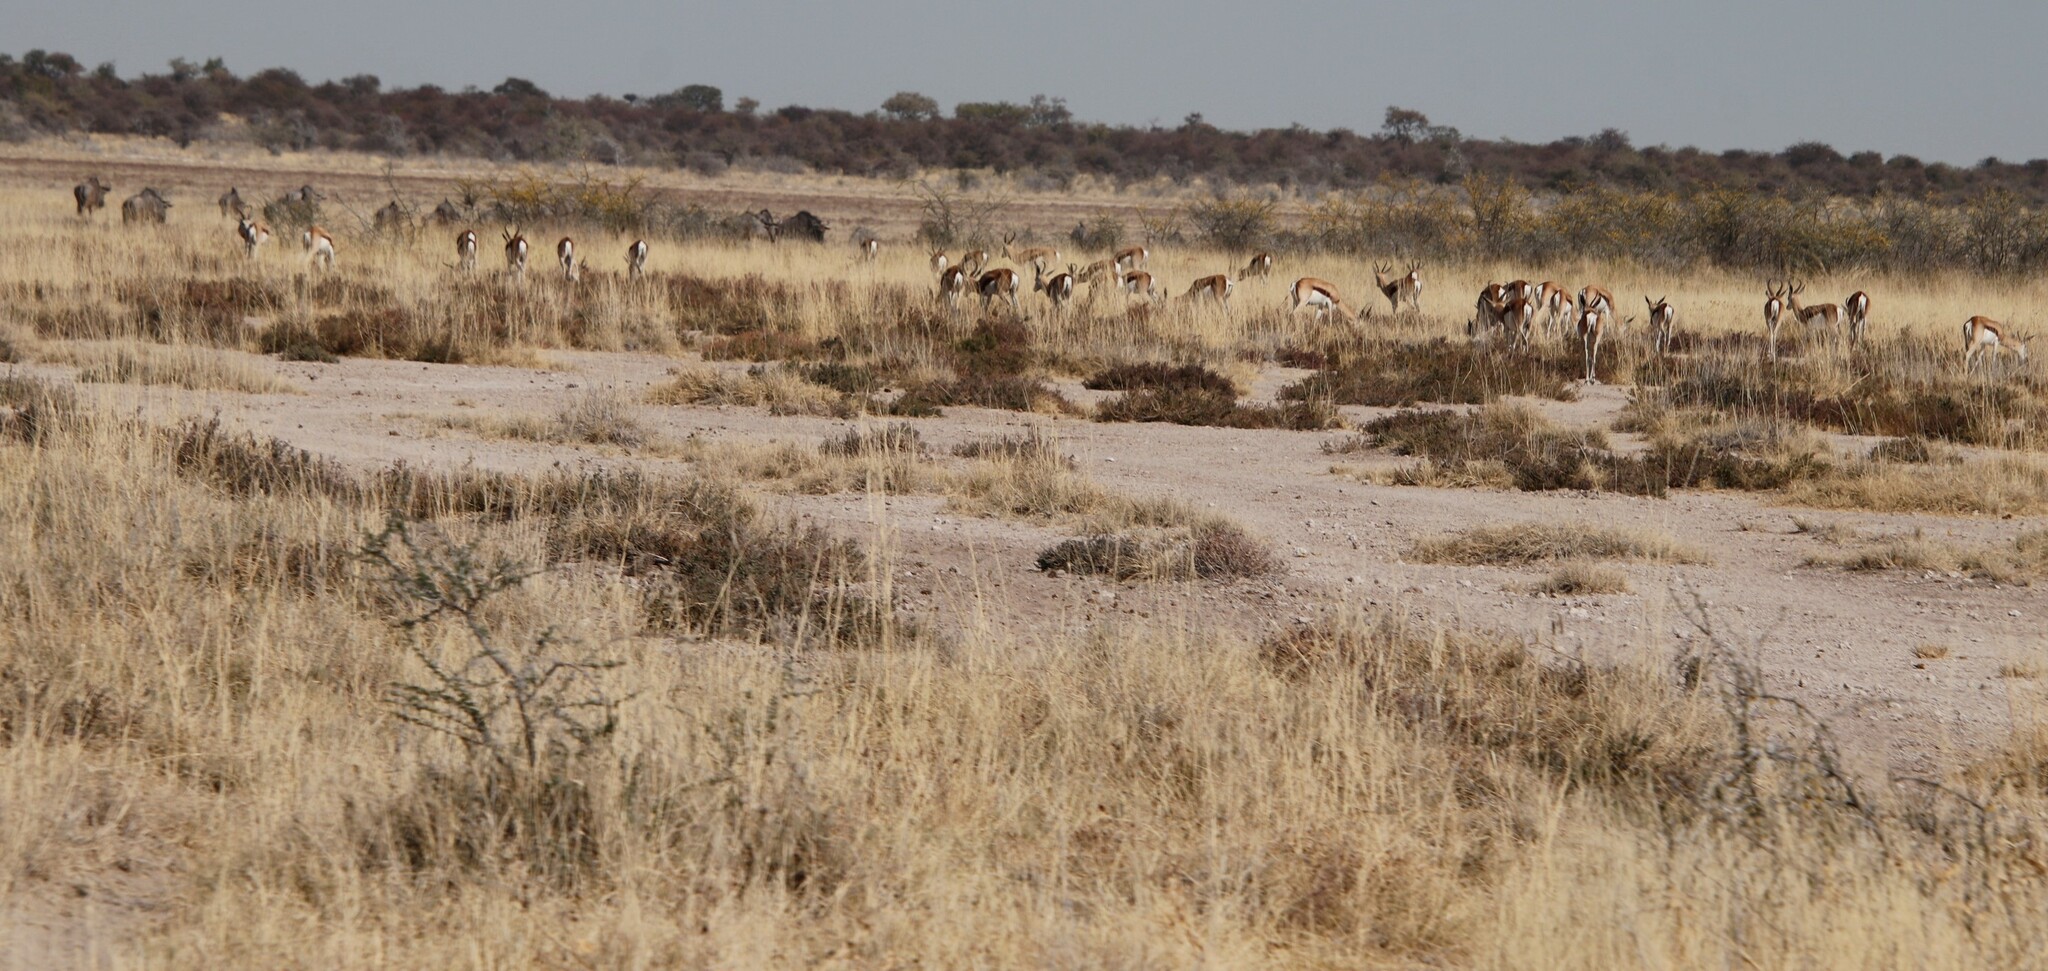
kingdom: Animalia
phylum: Chordata
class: Mammalia
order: Artiodactyla
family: Bovidae
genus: Antidorcas
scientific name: Antidorcas marsupialis
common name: Springbok
